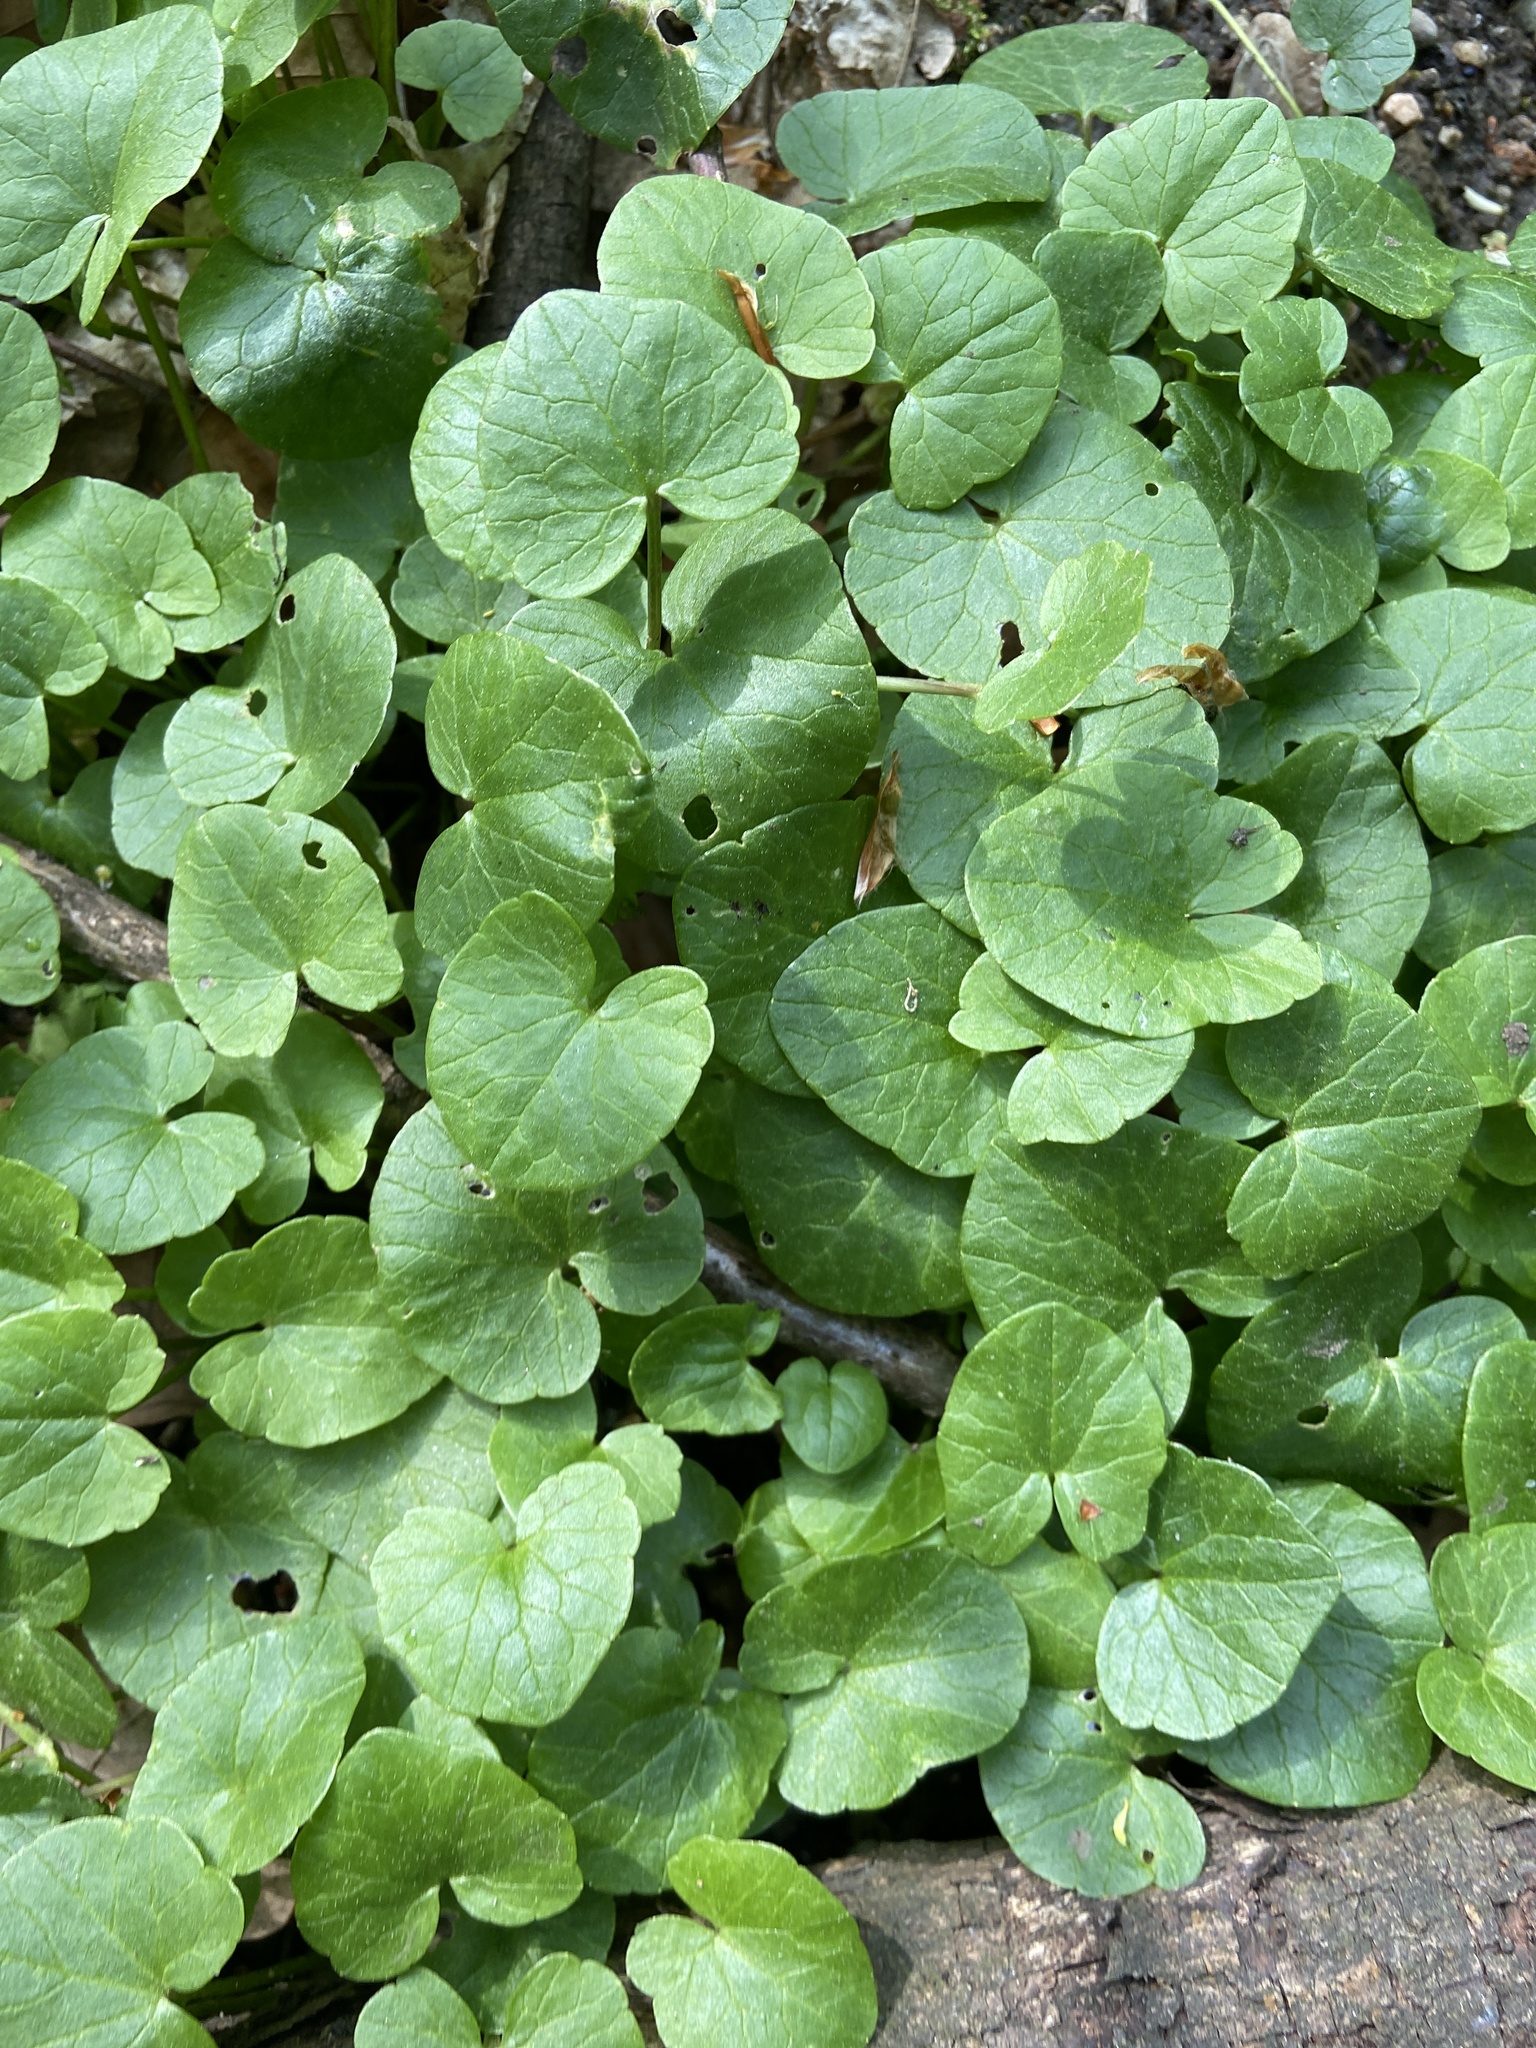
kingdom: Plantae
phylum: Tracheophyta
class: Magnoliopsida
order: Ranunculales
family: Ranunculaceae
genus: Ficaria
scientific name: Ficaria verna
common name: Lesser celandine
